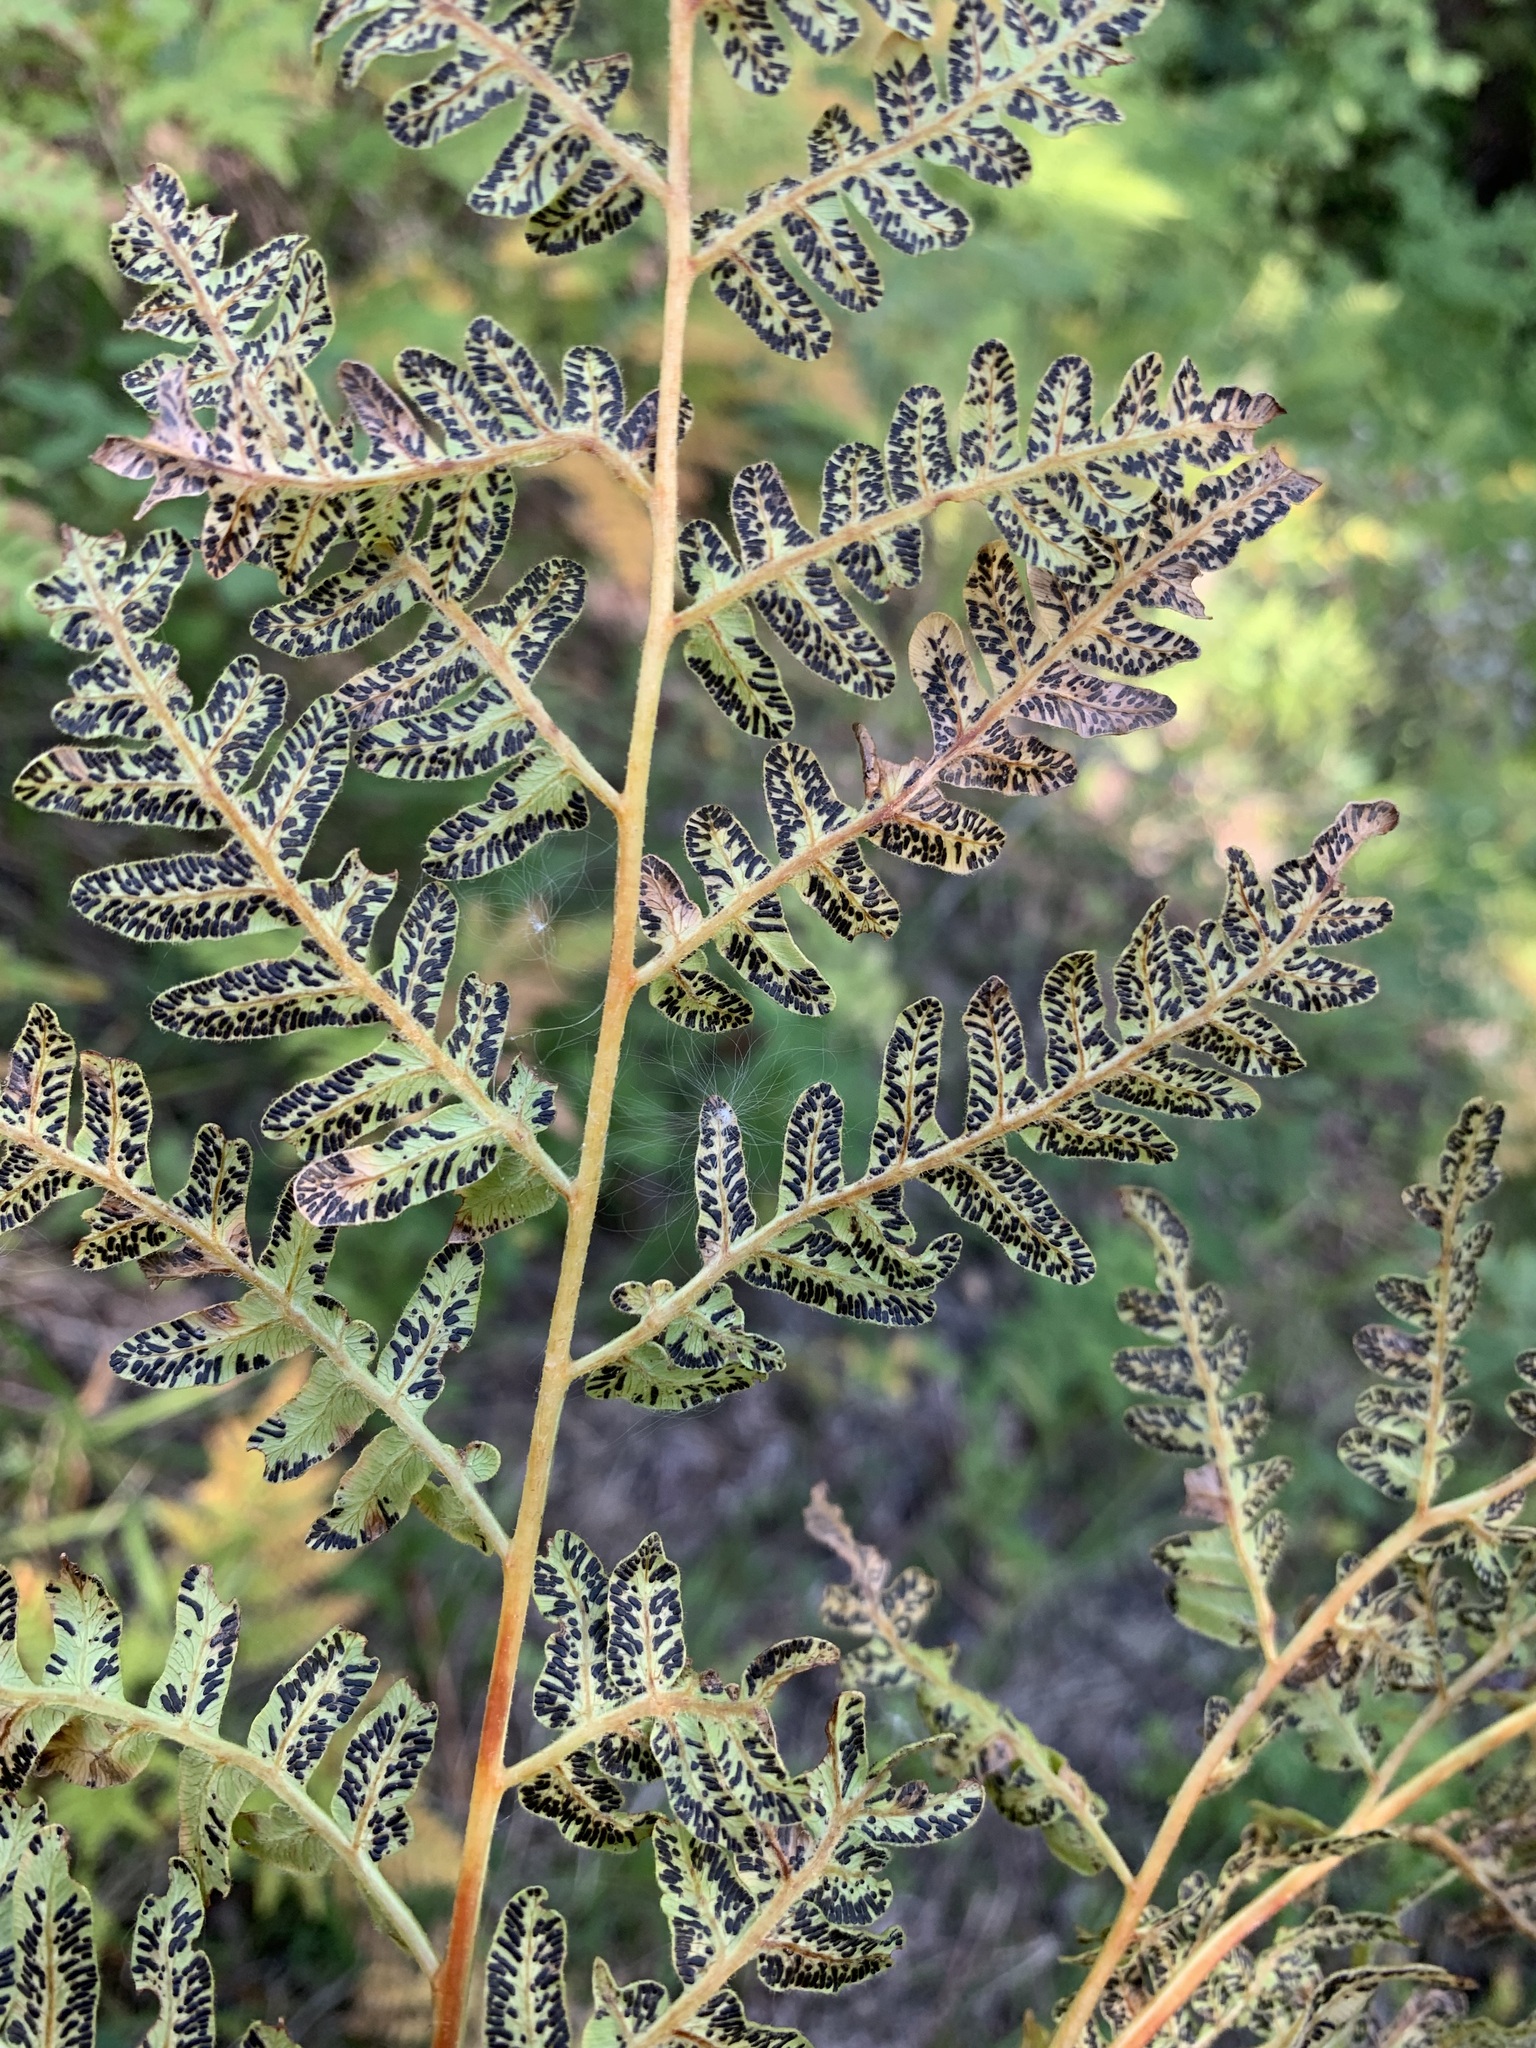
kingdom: Plantae
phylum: Tracheophyta
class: Polypodiopsida
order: Polypodiales
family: Dennstaedtiaceae
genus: Pteridium
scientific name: Pteridium aquilinum
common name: Bracken
